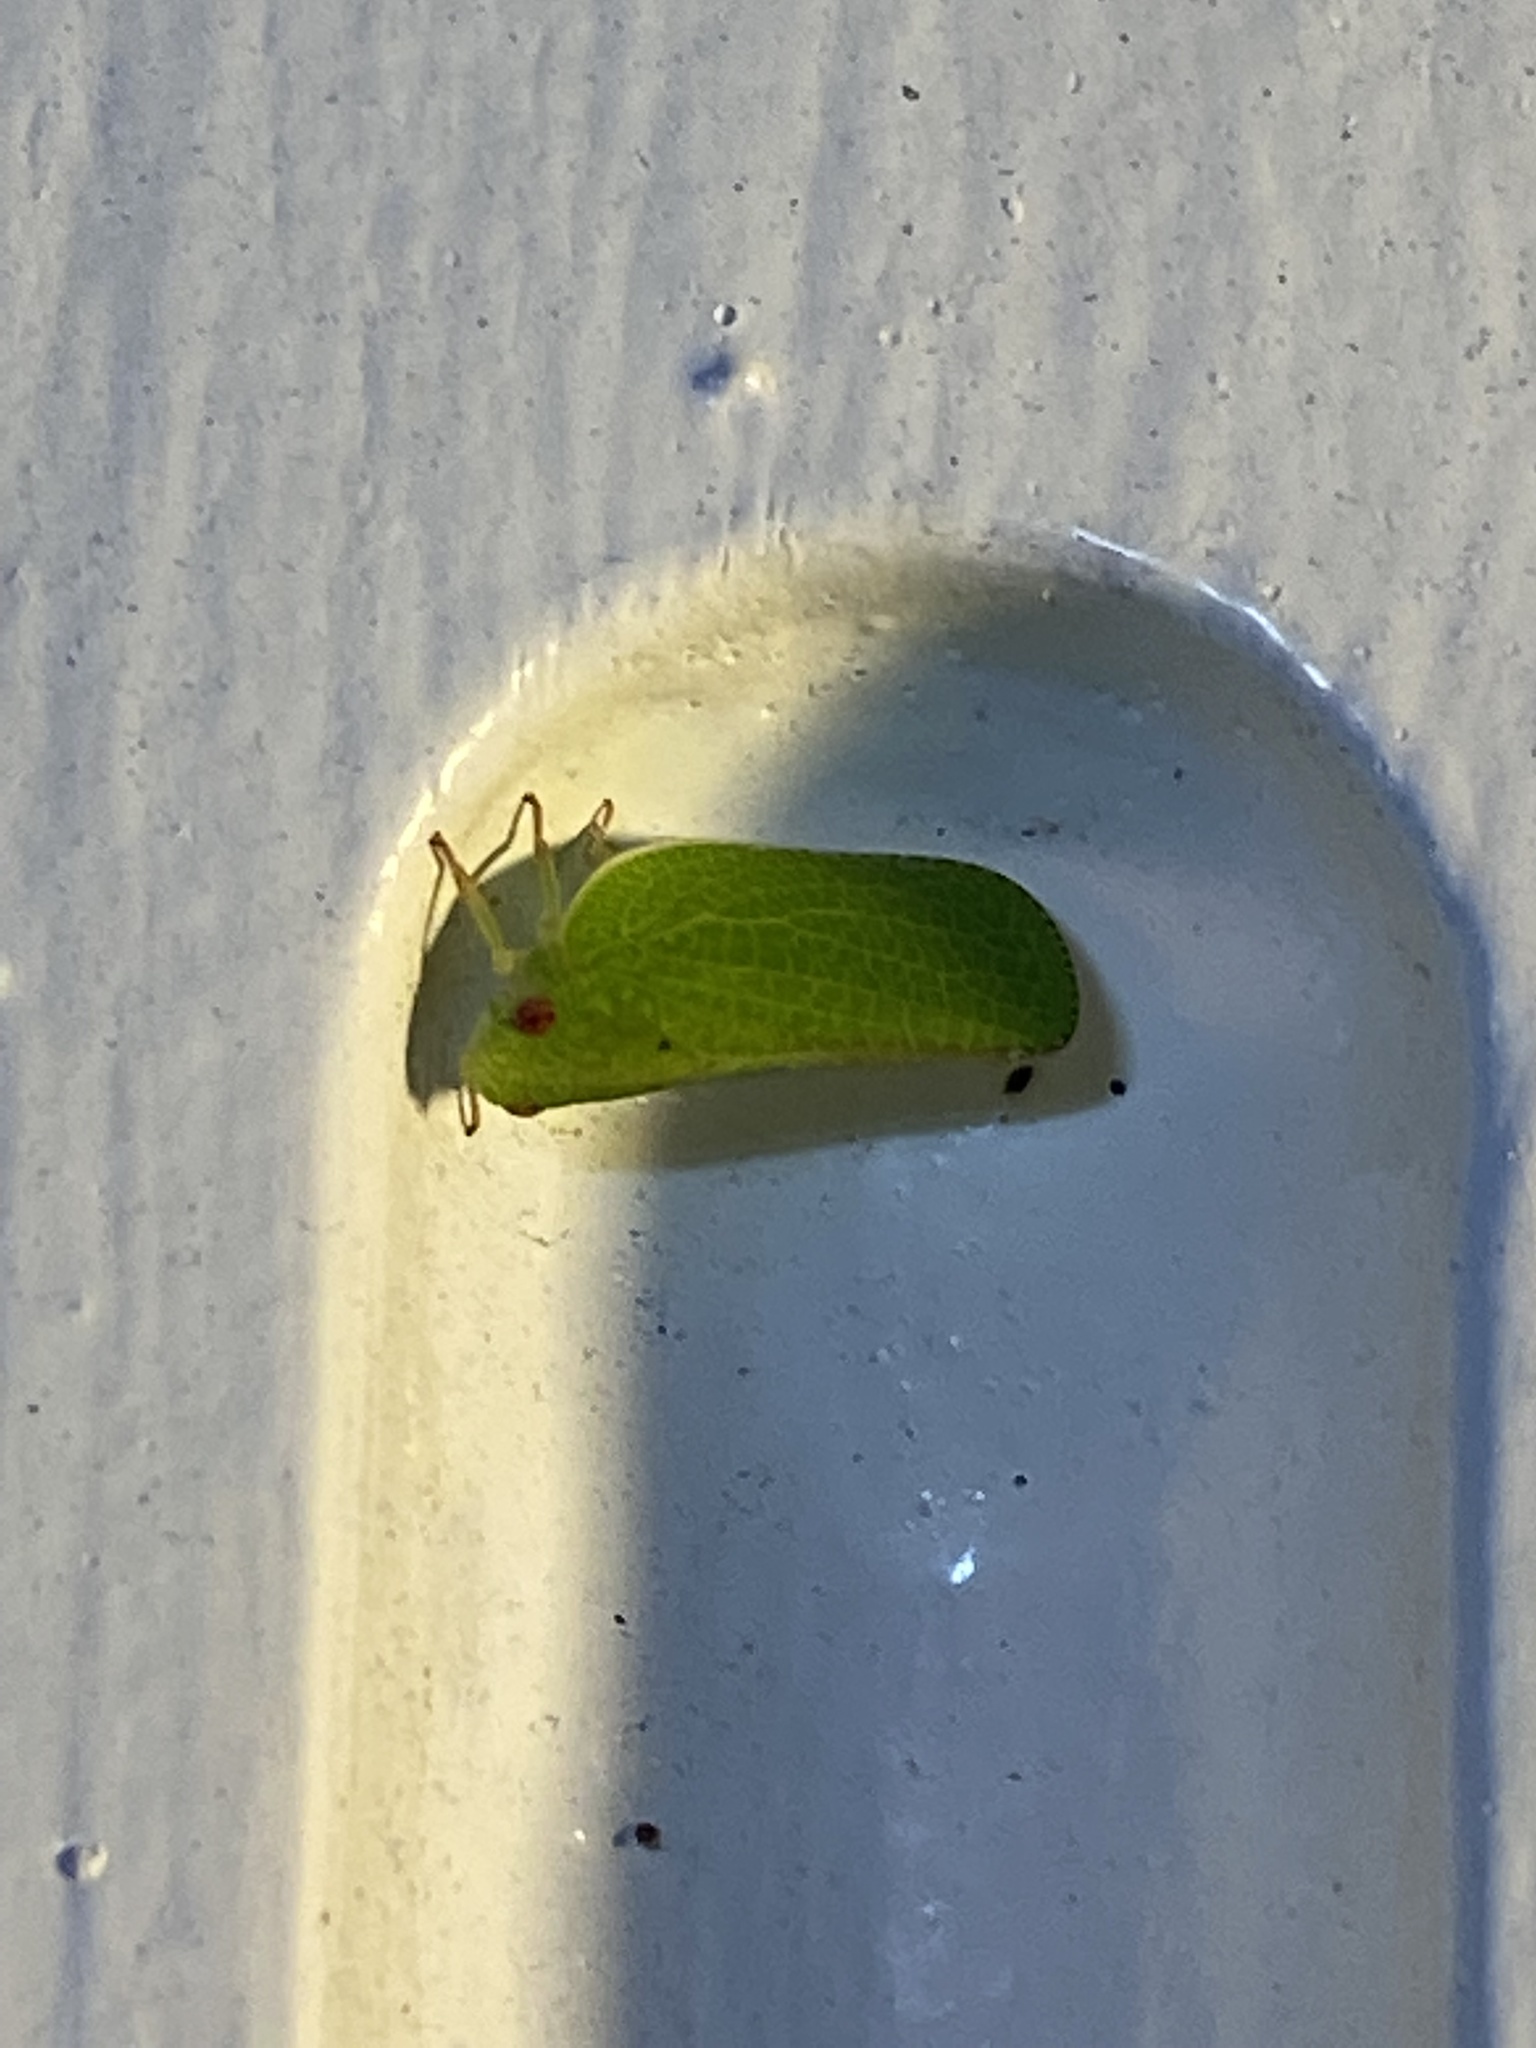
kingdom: Animalia
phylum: Arthropoda
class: Insecta
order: Hemiptera
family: Acanaloniidae
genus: Acanalonia
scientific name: Acanalonia conica
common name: Green cone-headed planthopper
